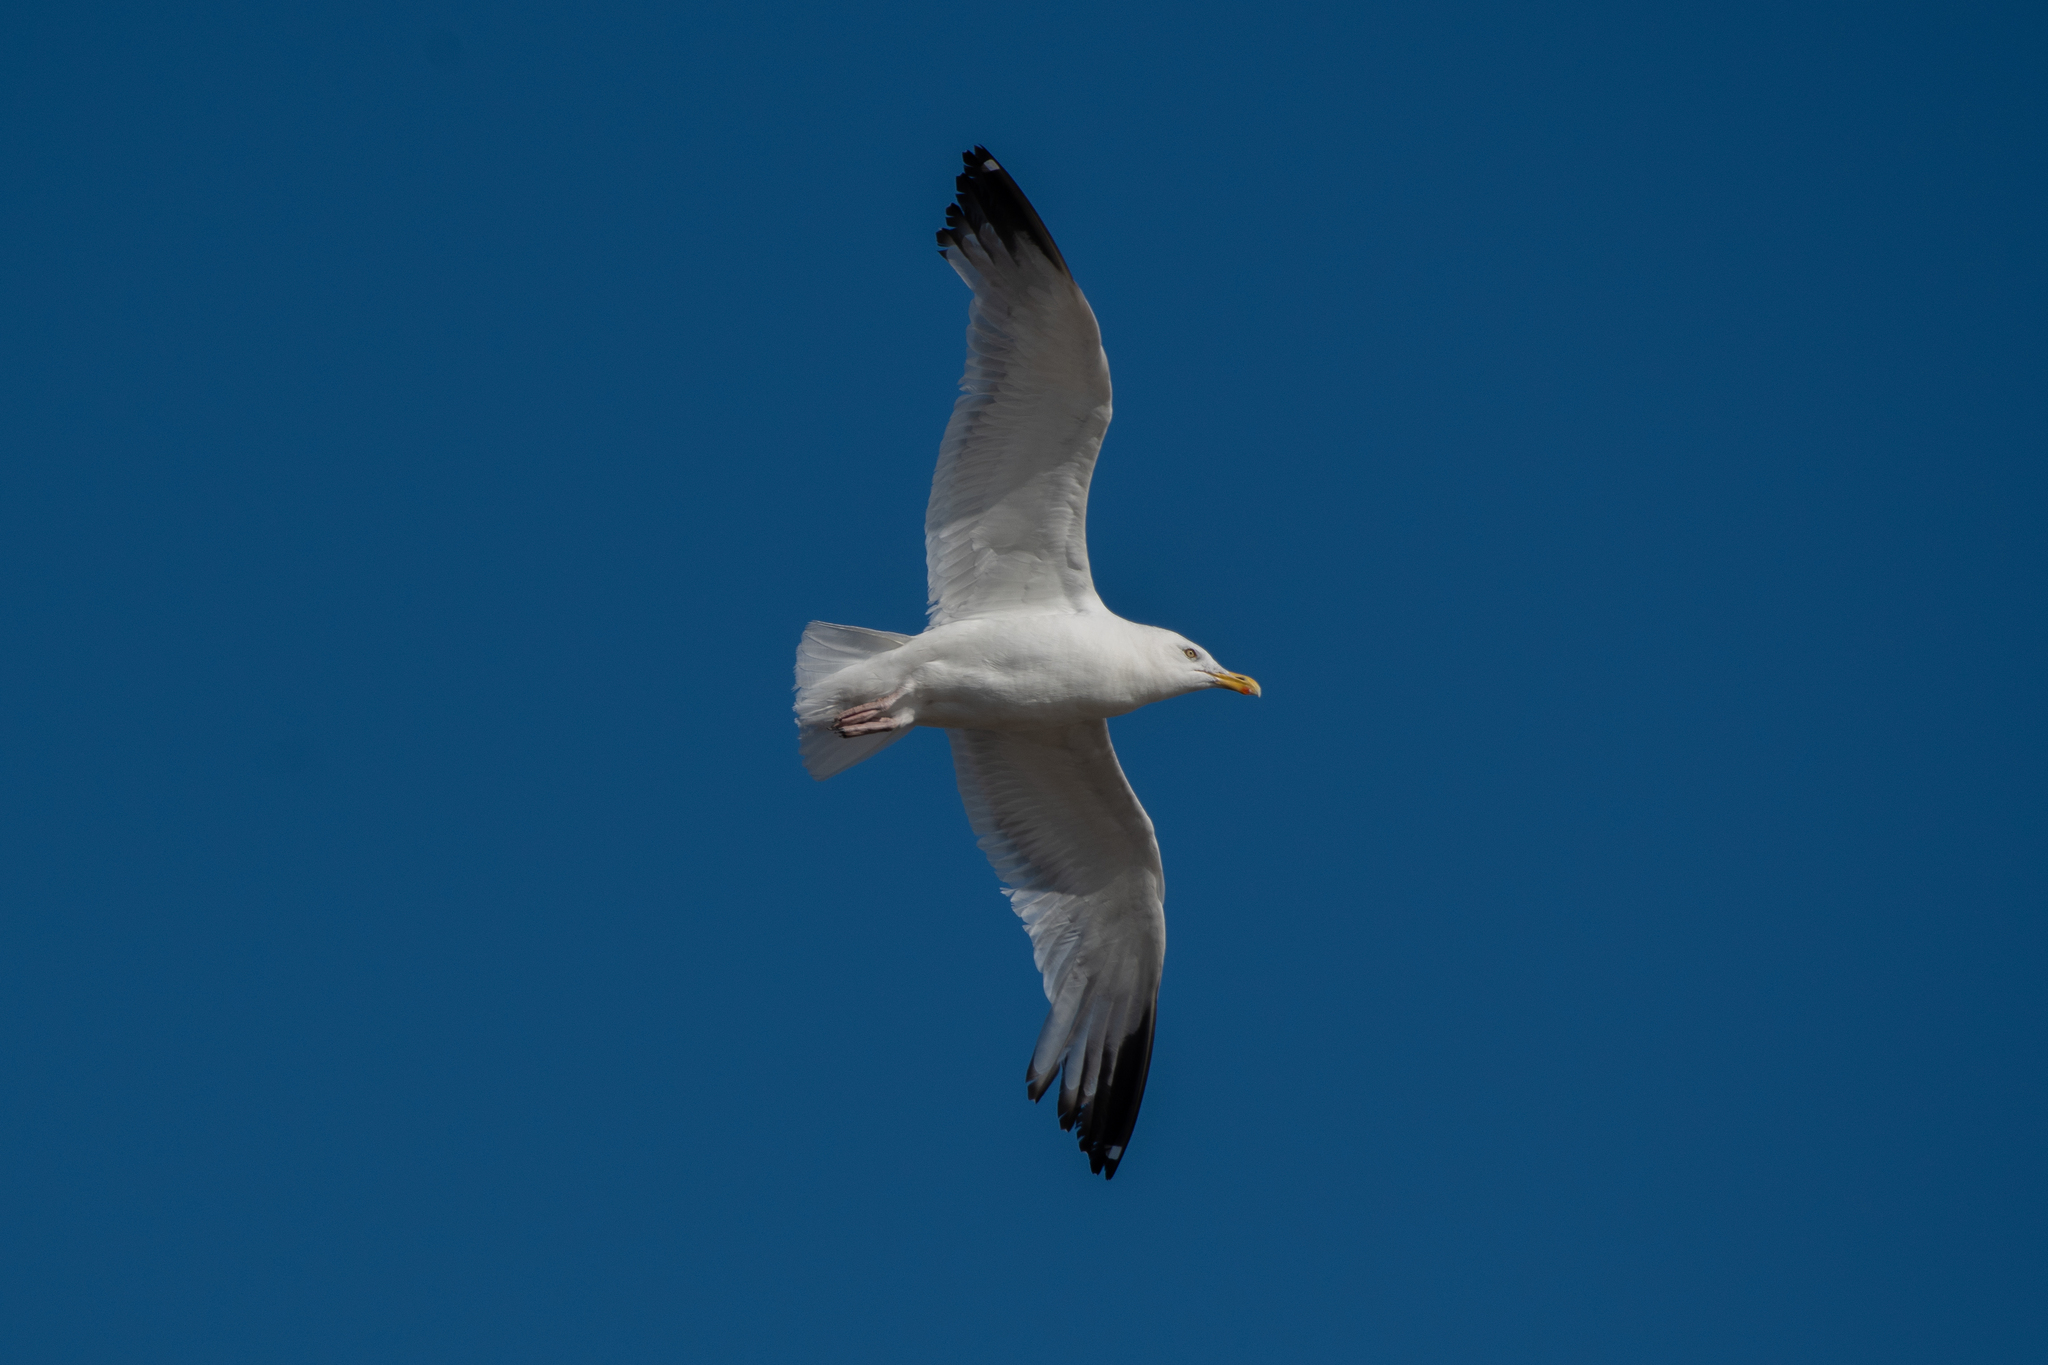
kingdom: Animalia
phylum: Chordata
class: Aves
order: Charadriiformes
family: Laridae
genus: Larus
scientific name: Larus argentatus
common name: Herring gull
